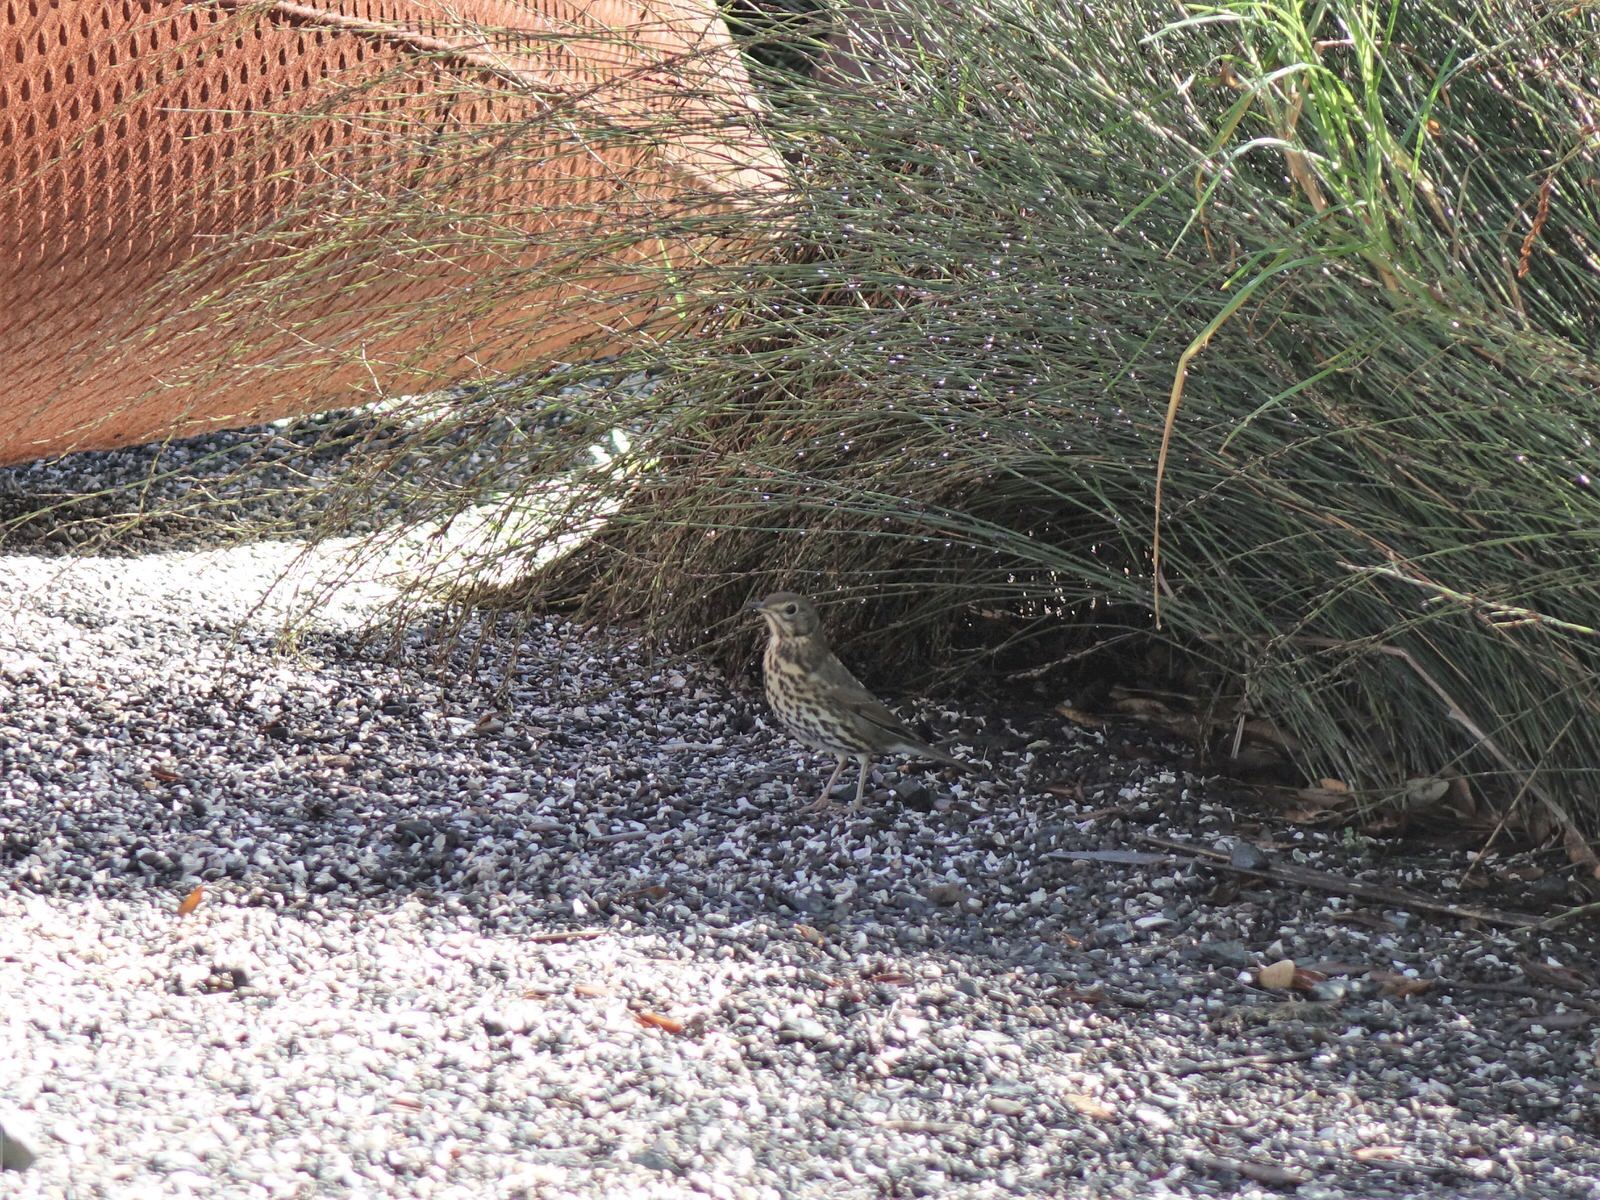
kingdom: Animalia
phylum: Chordata
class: Aves
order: Passeriformes
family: Turdidae
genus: Turdus
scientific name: Turdus philomelos
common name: Song thrush
